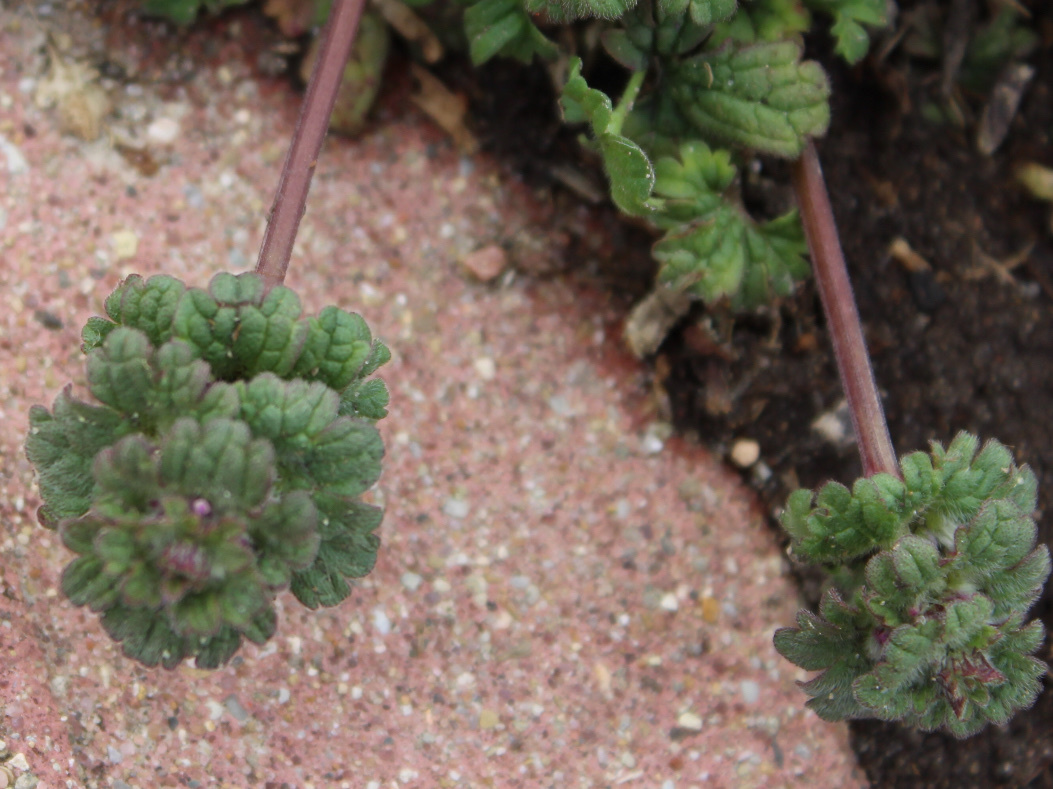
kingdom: Plantae
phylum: Tracheophyta
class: Magnoliopsida
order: Lamiales
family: Lamiaceae
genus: Lamium
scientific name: Lamium amplexicaule
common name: Henbit dead-nettle
